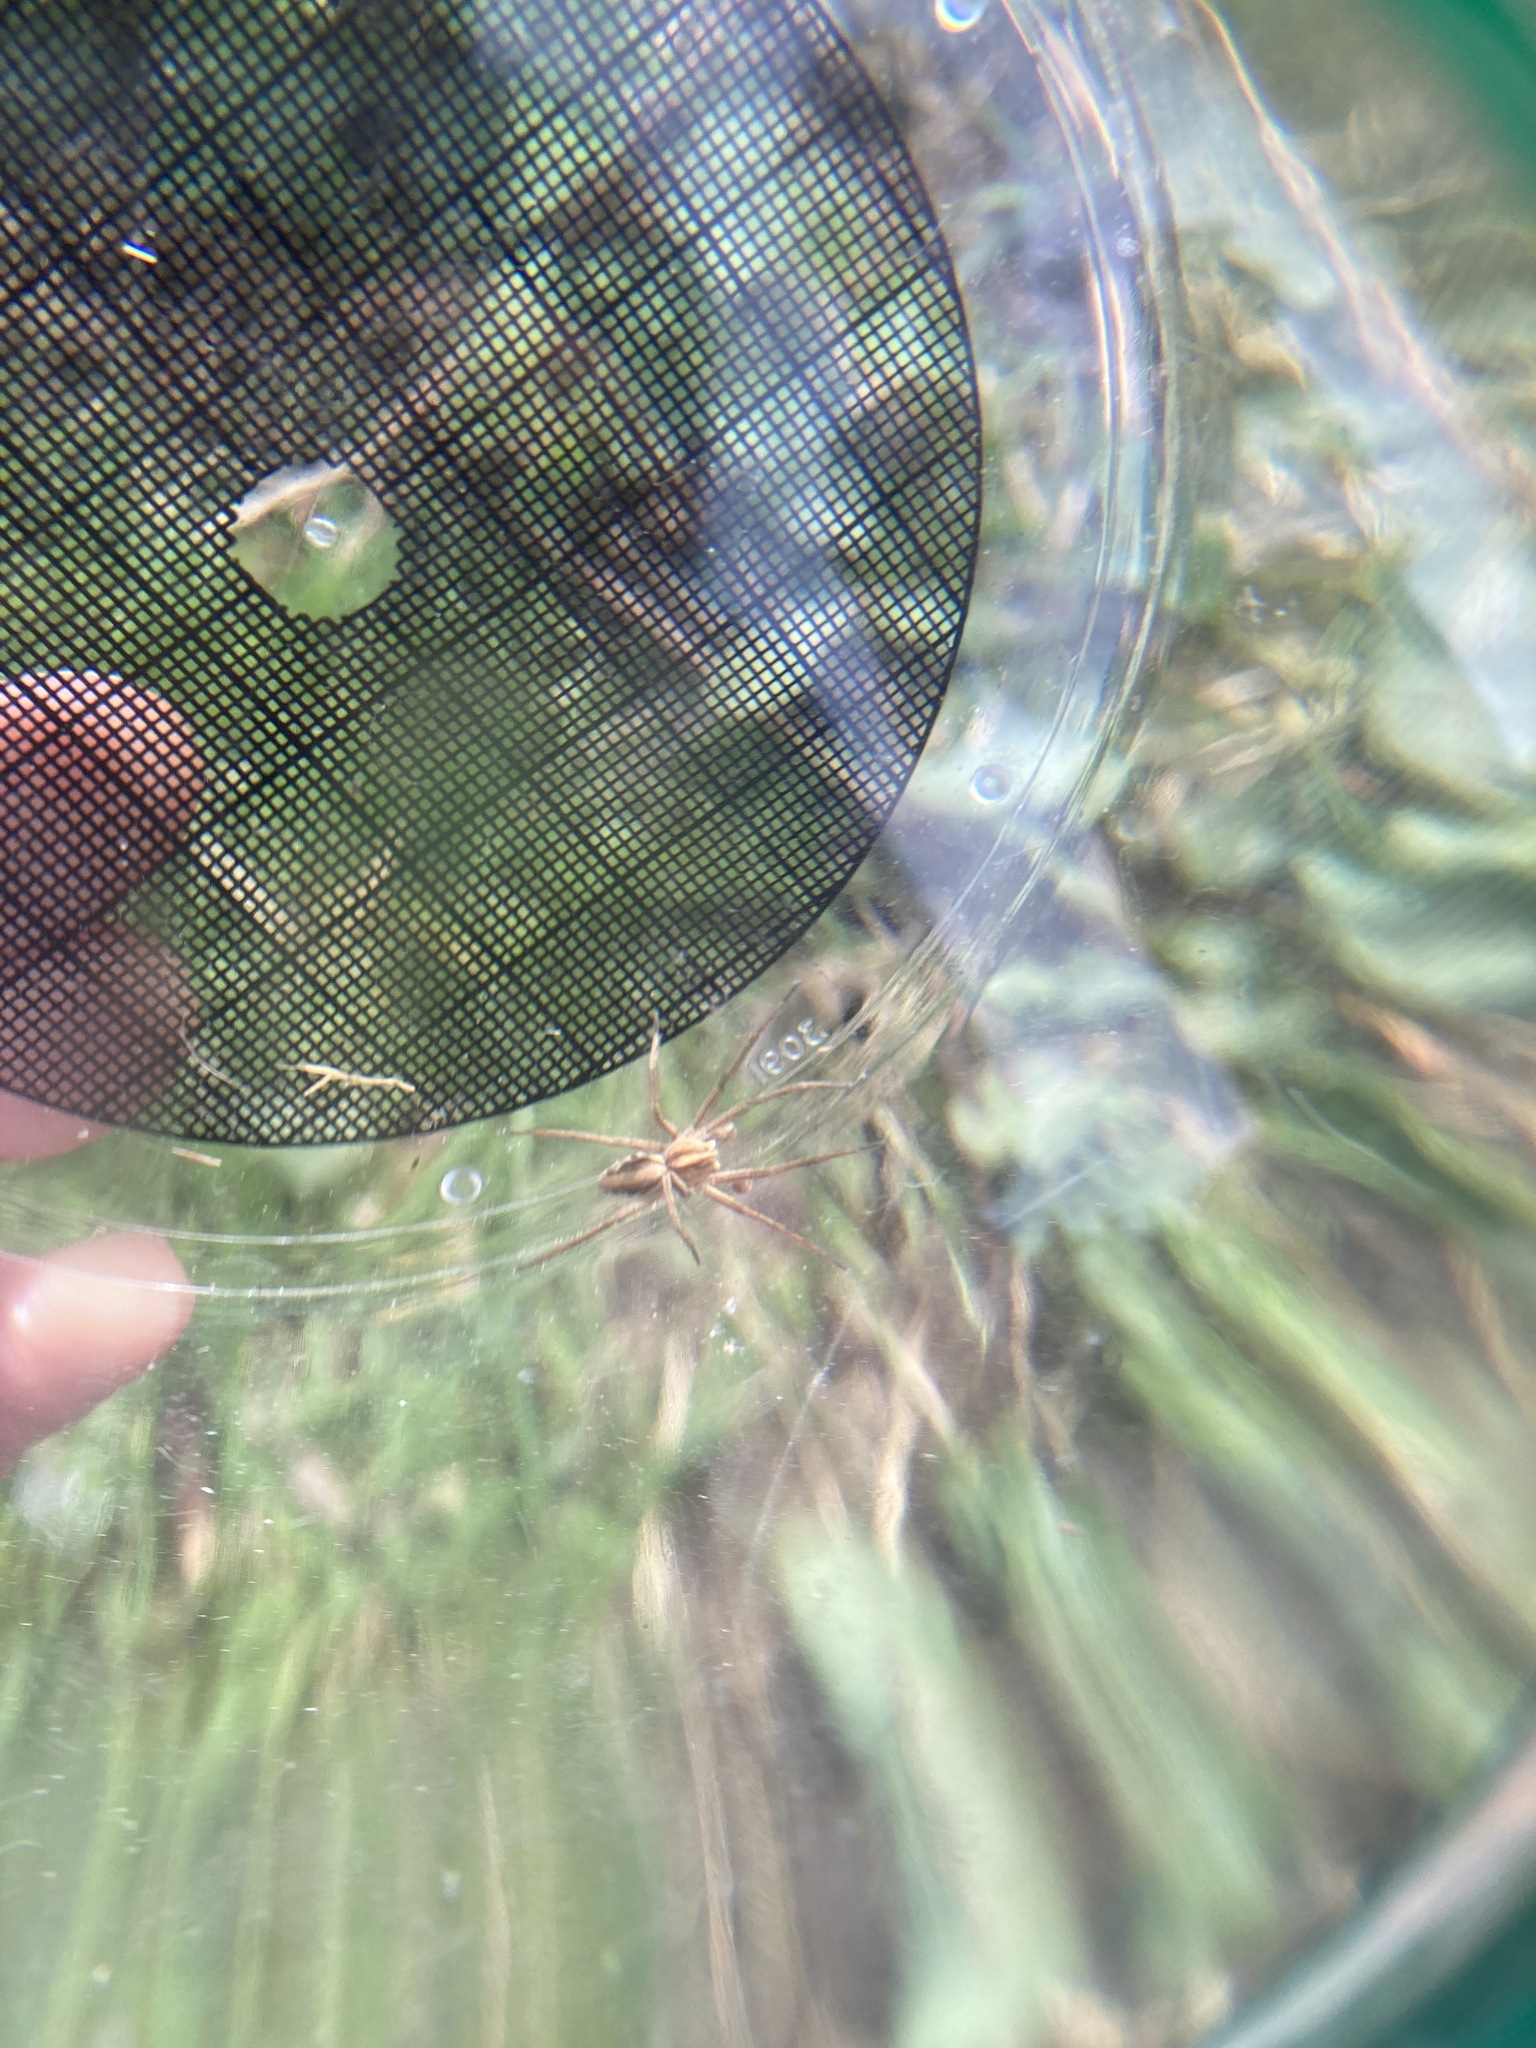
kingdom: Animalia
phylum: Arthropoda
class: Arachnida
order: Araneae
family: Pisauridae
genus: Pisaura
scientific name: Pisaura mirabilis
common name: Tent spider
